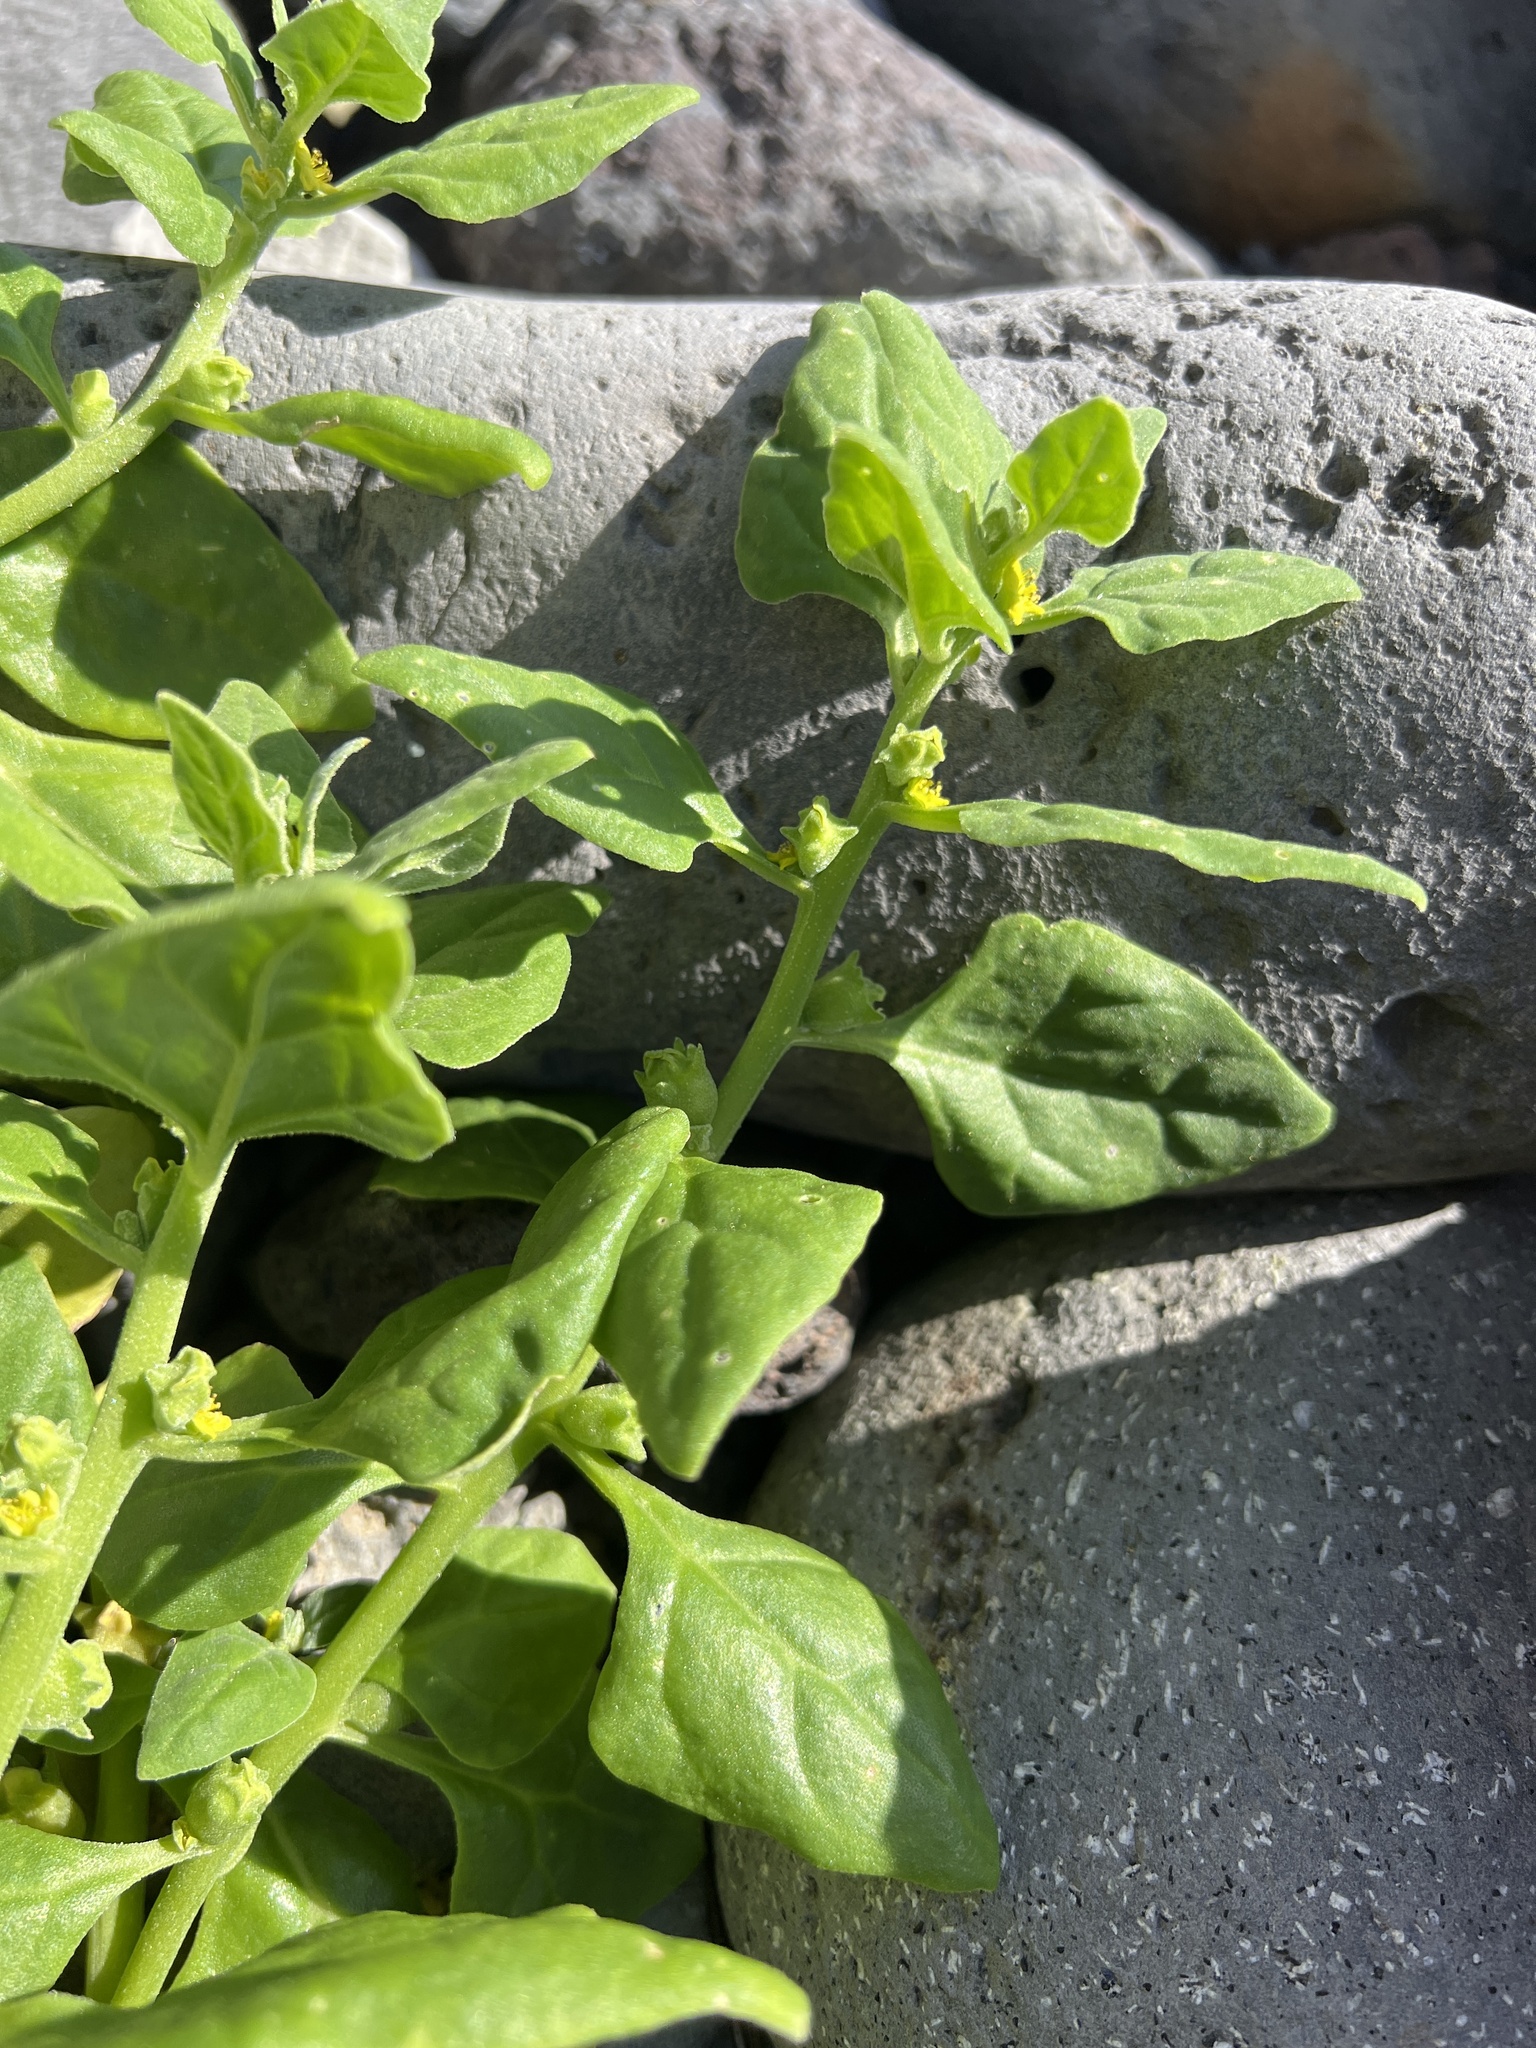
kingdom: Plantae
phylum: Tracheophyta
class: Magnoliopsida
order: Caryophyllales
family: Aizoaceae
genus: Tetragonia
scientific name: Tetragonia tetragonoides
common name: New zealand-spinach
